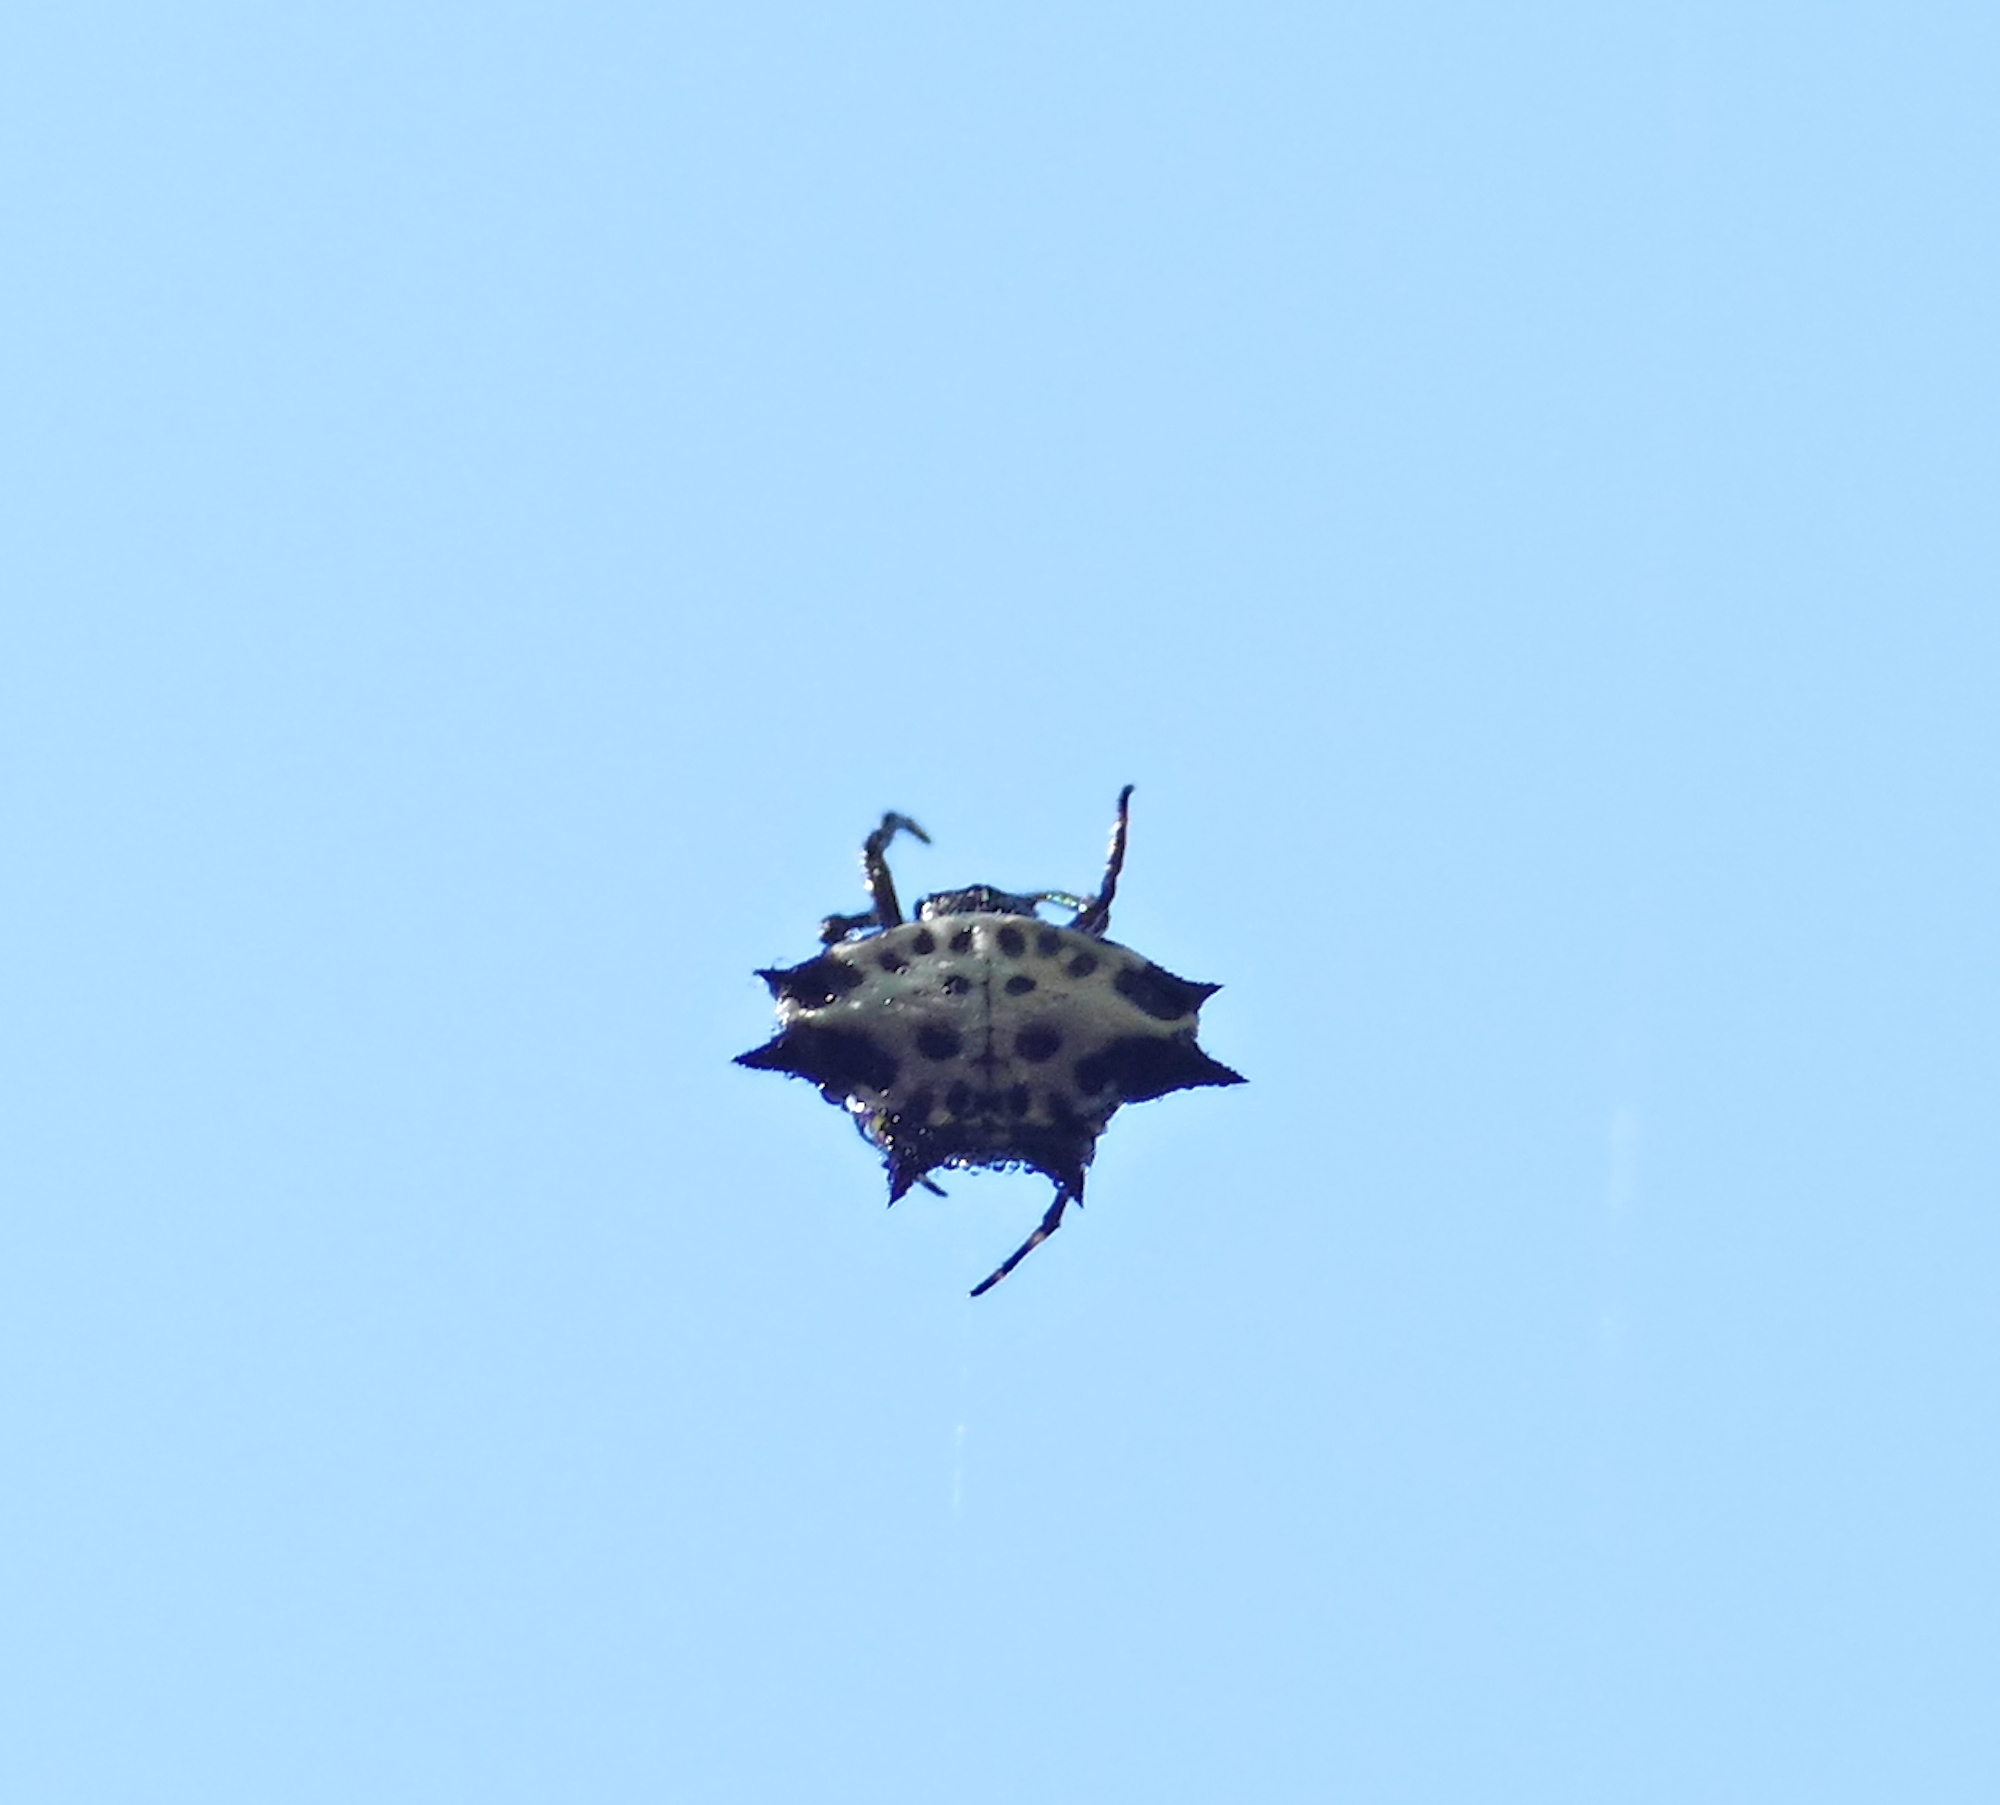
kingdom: Animalia
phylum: Arthropoda
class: Arachnida
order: Araneae
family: Araneidae
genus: Gasteracantha
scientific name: Gasteracantha cancriformis
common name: Orb weavers
